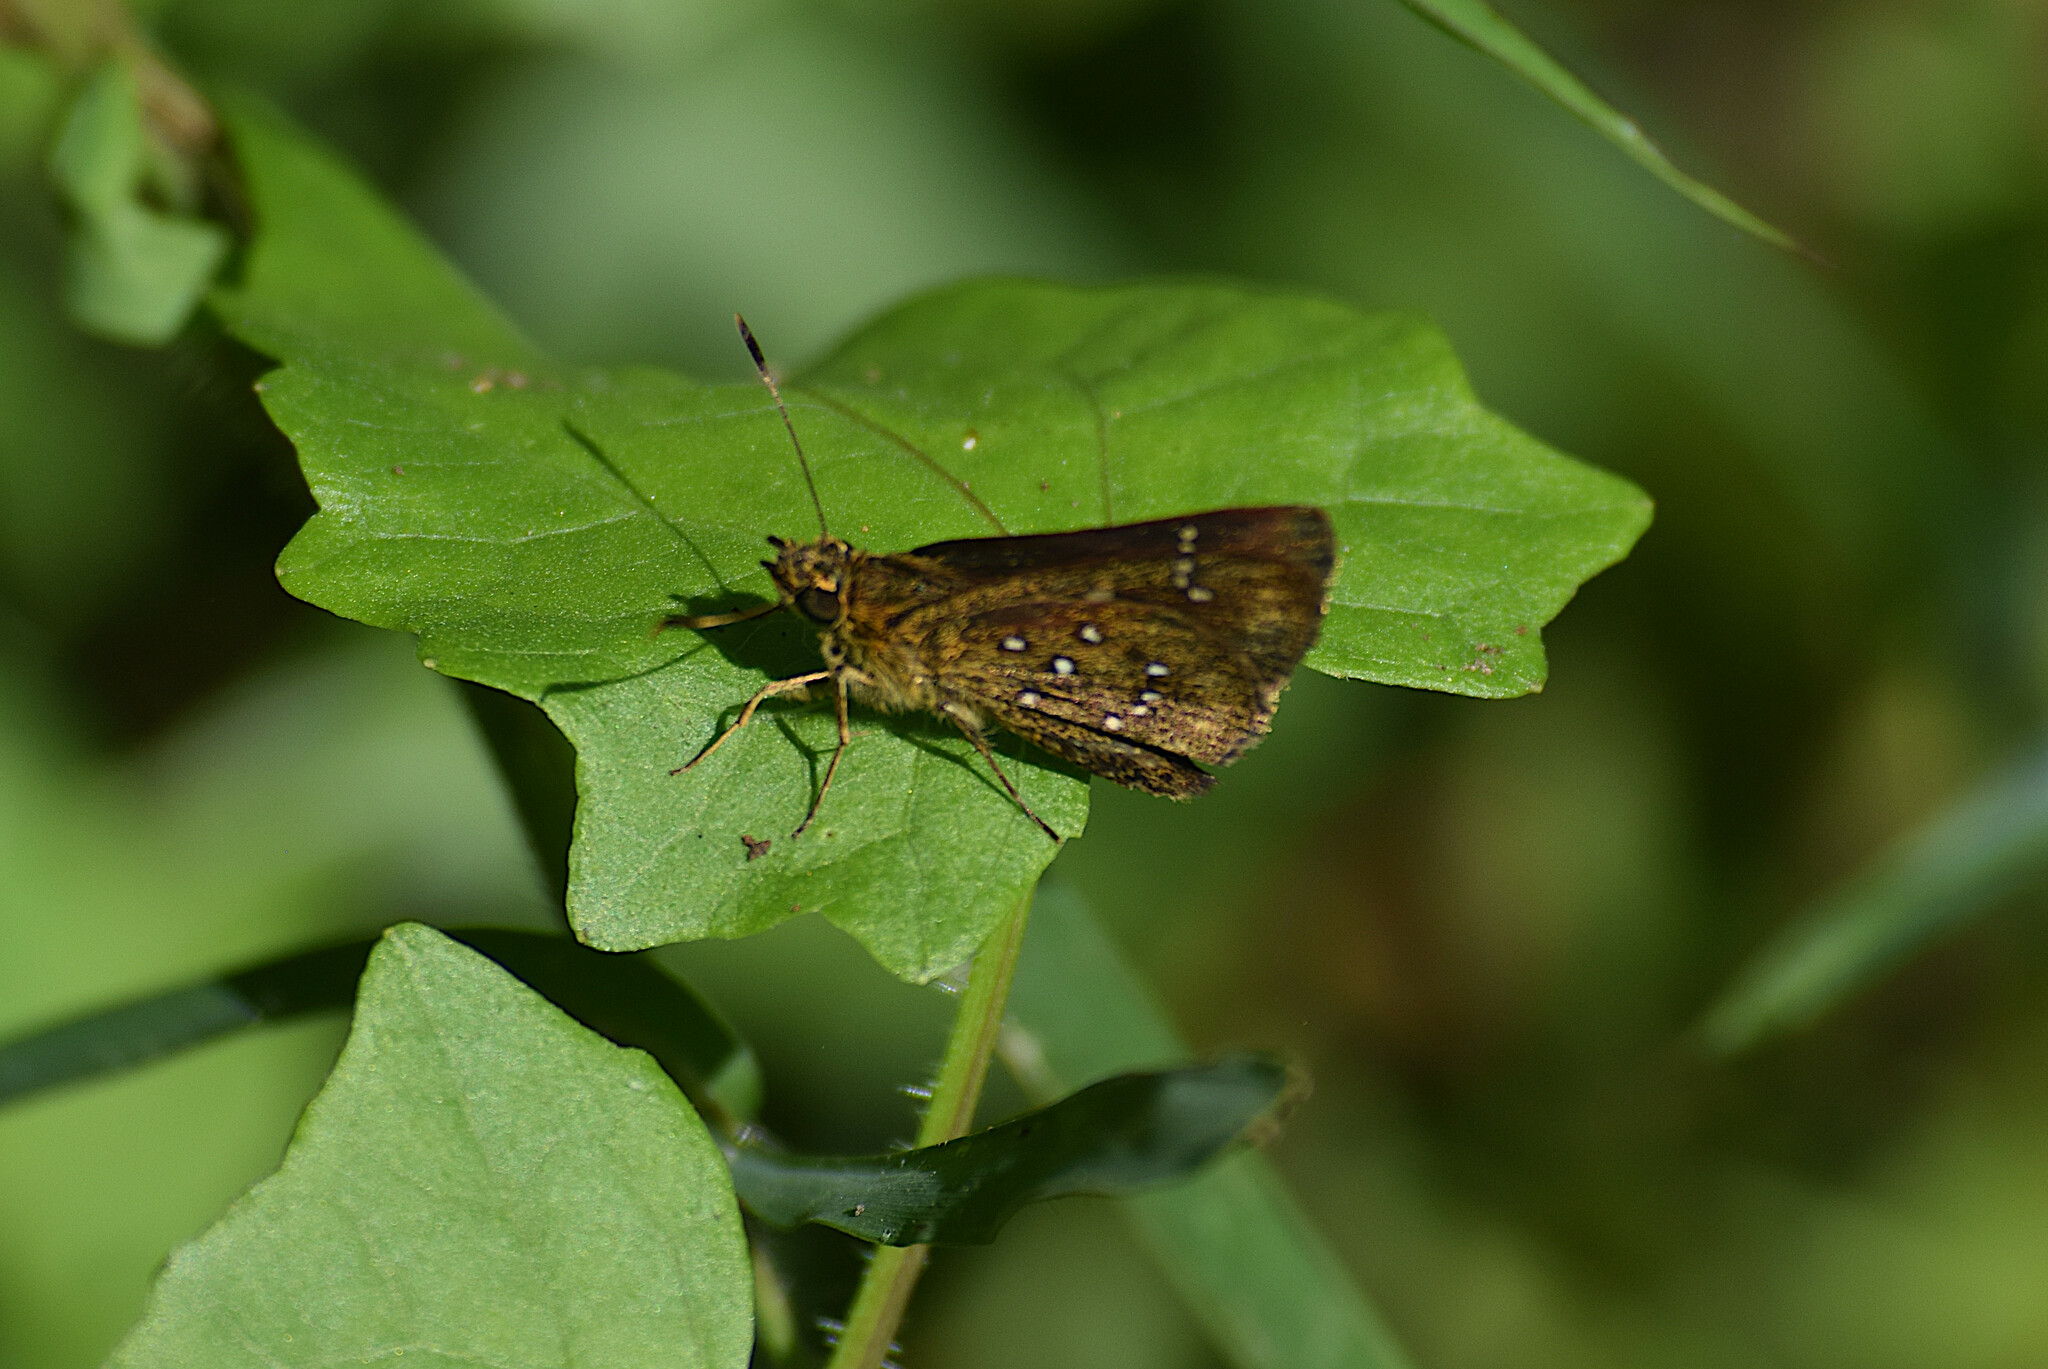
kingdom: Animalia
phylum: Arthropoda
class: Insecta
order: Lepidoptera
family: Hesperiidae
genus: Arnetta
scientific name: Arnetta atkinsoni
